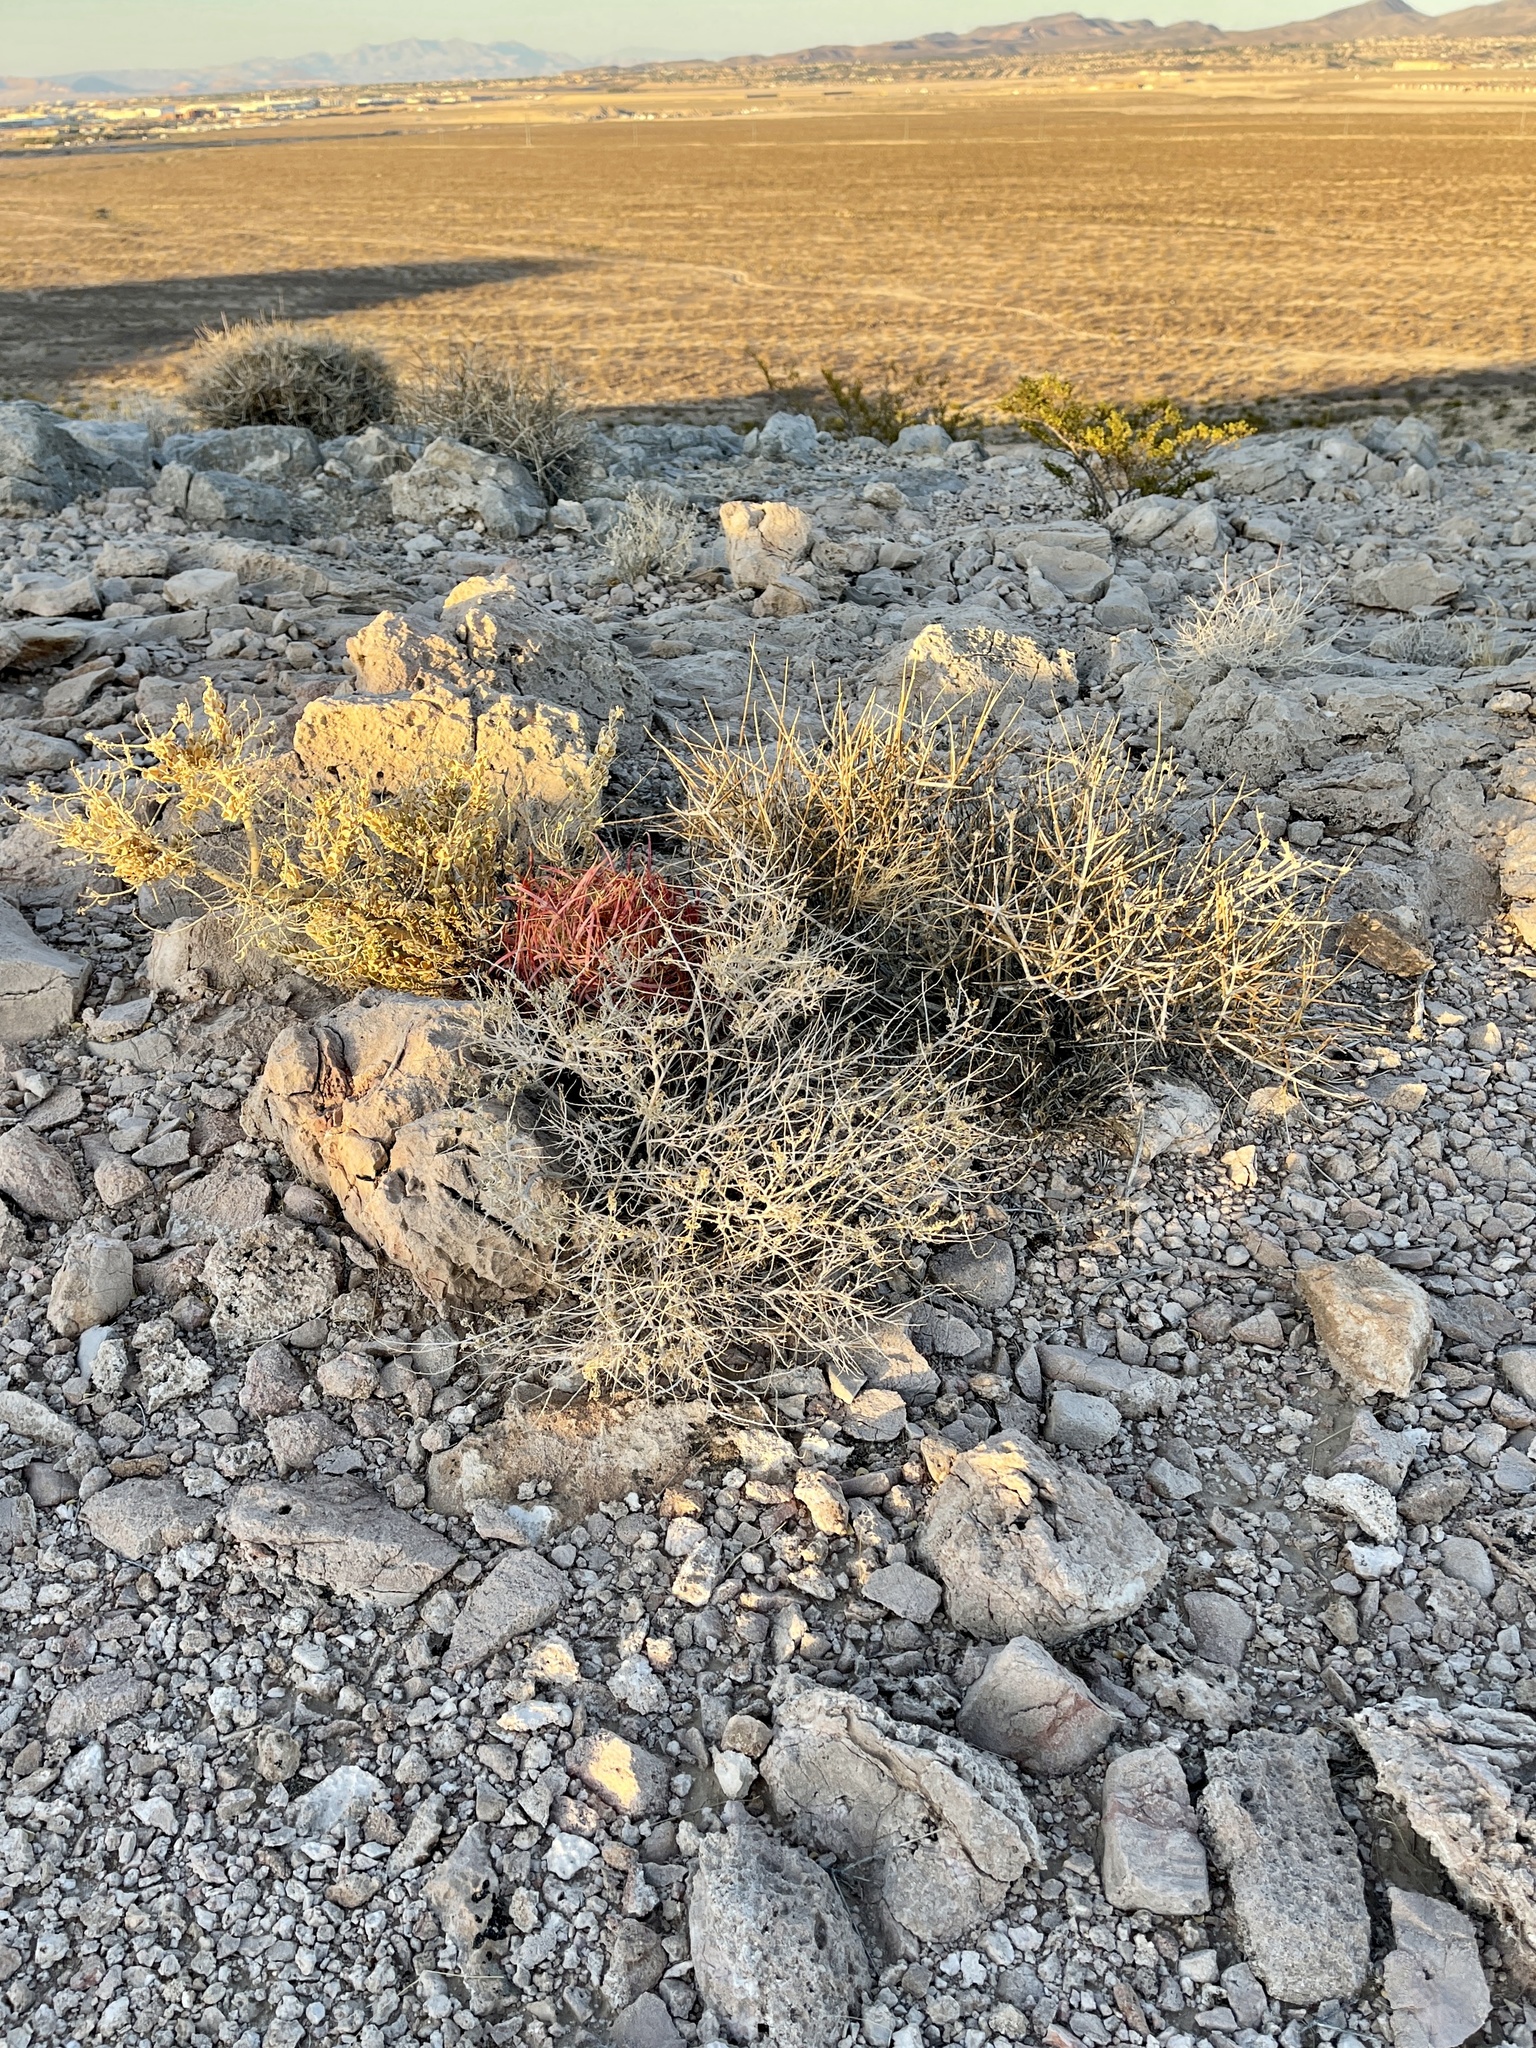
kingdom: Plantae
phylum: Tracheophyta
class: Gnetopsida
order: Ephedrales
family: Ephedraceae
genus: Ephedra
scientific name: Ephedra nevadensis
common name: Gray ephedra
